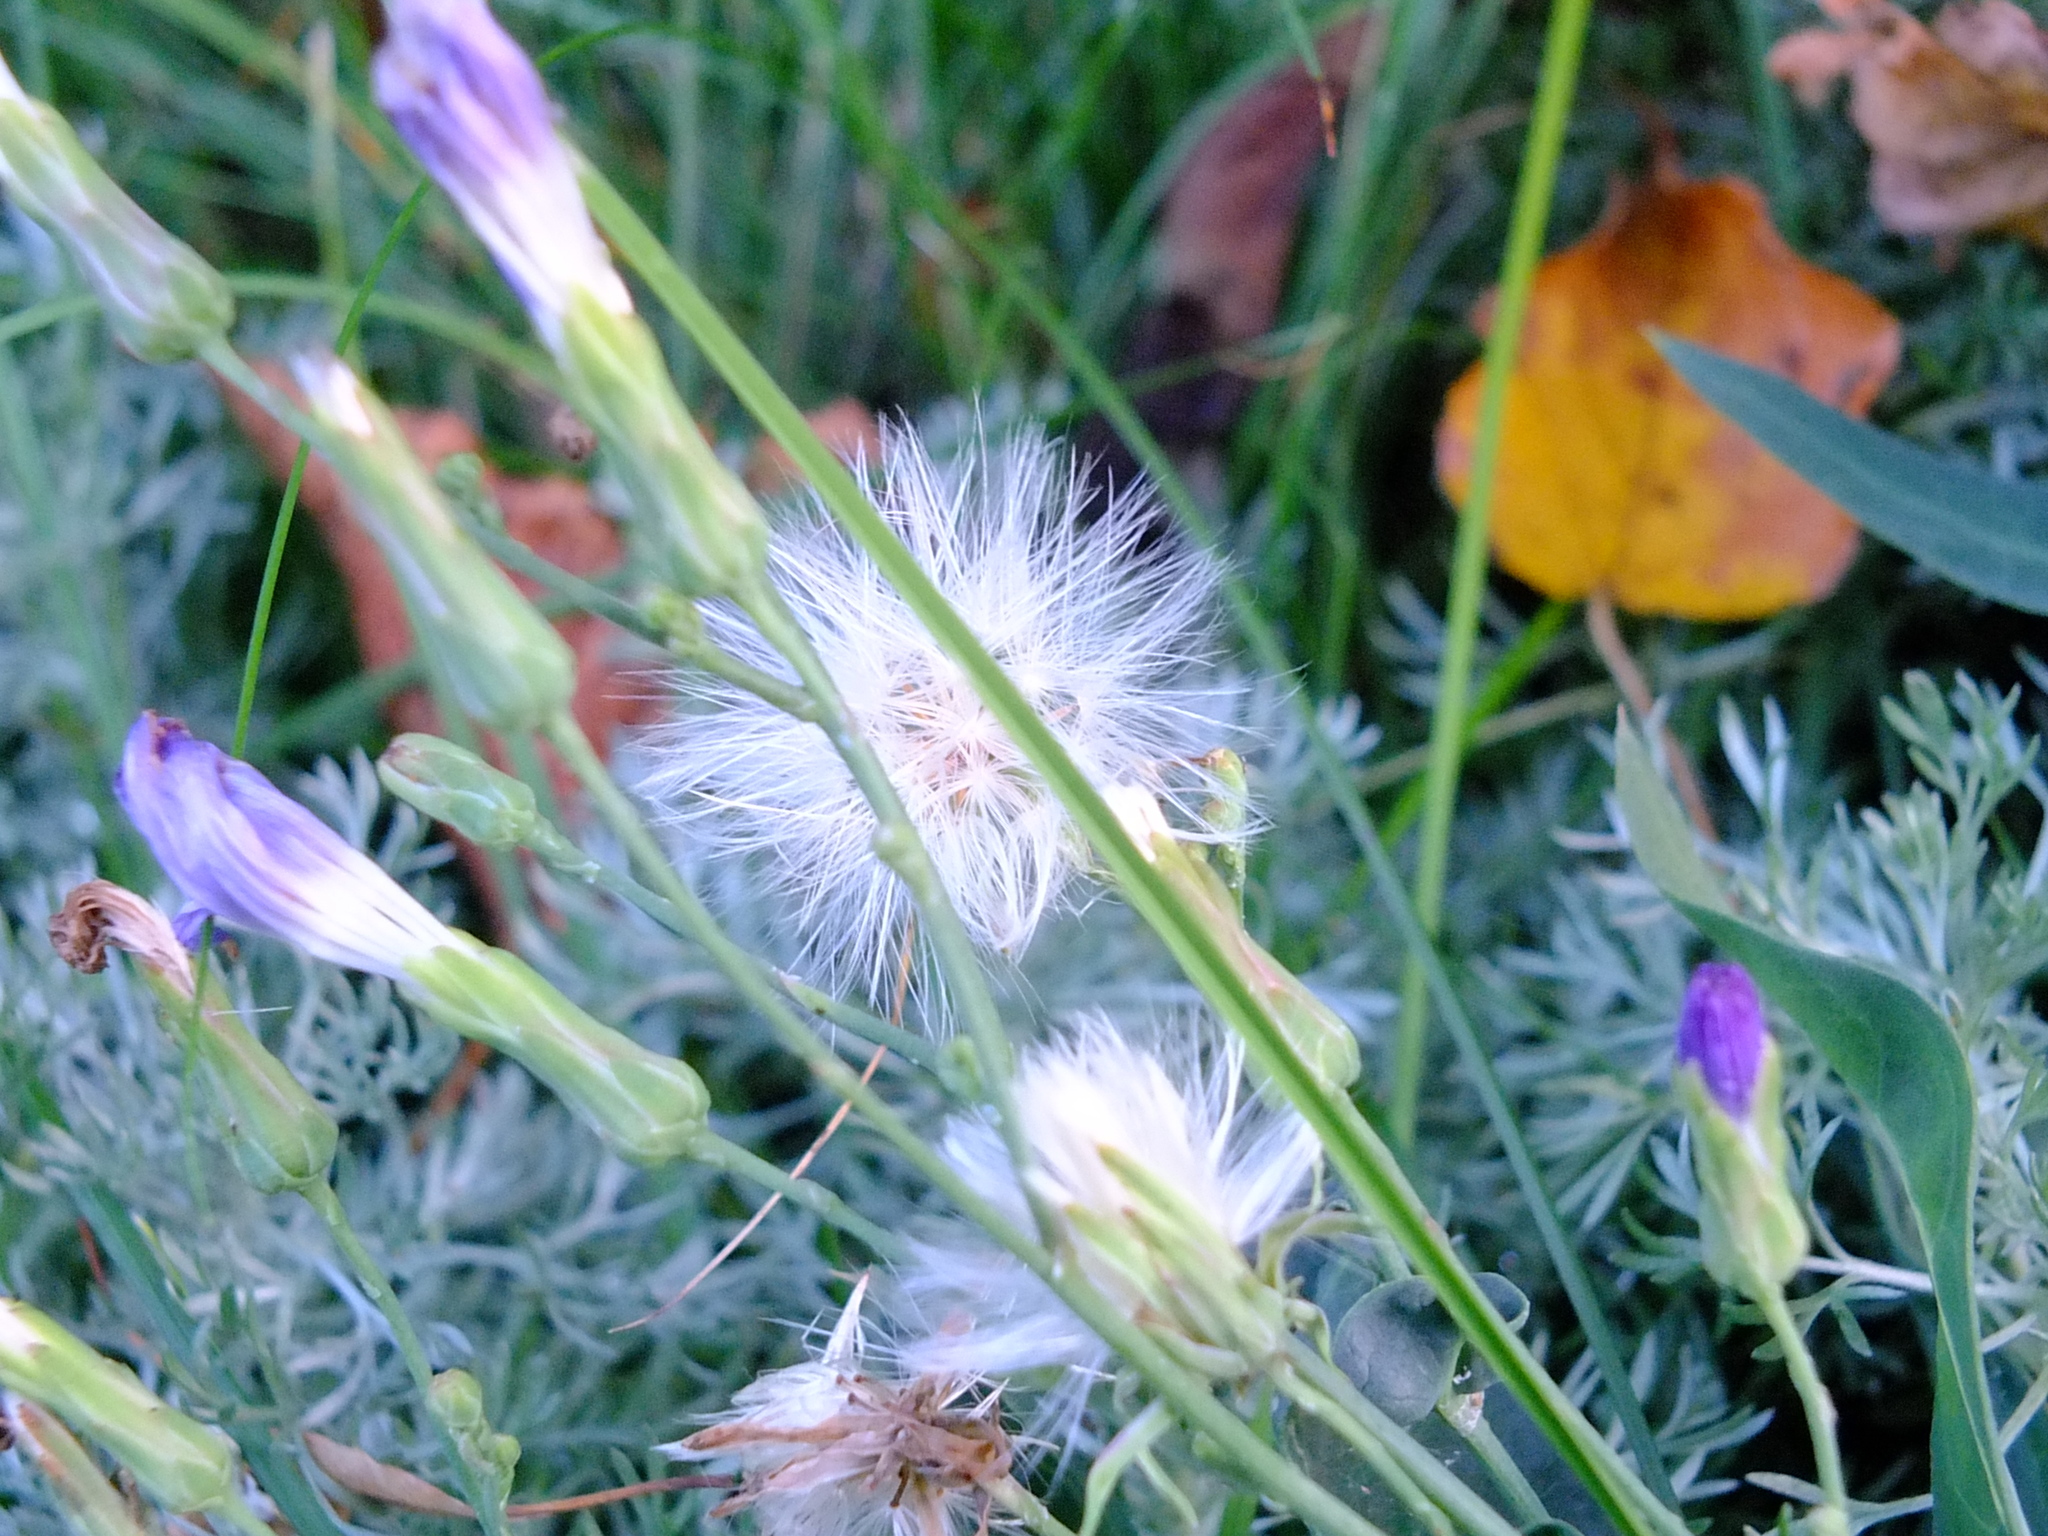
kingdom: Plantae
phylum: Tracheophyta
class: Magnoliopsida
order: Asterales
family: Asteraceae
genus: Lactuca
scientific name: Lactuca tatarica
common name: Blue lettuce
